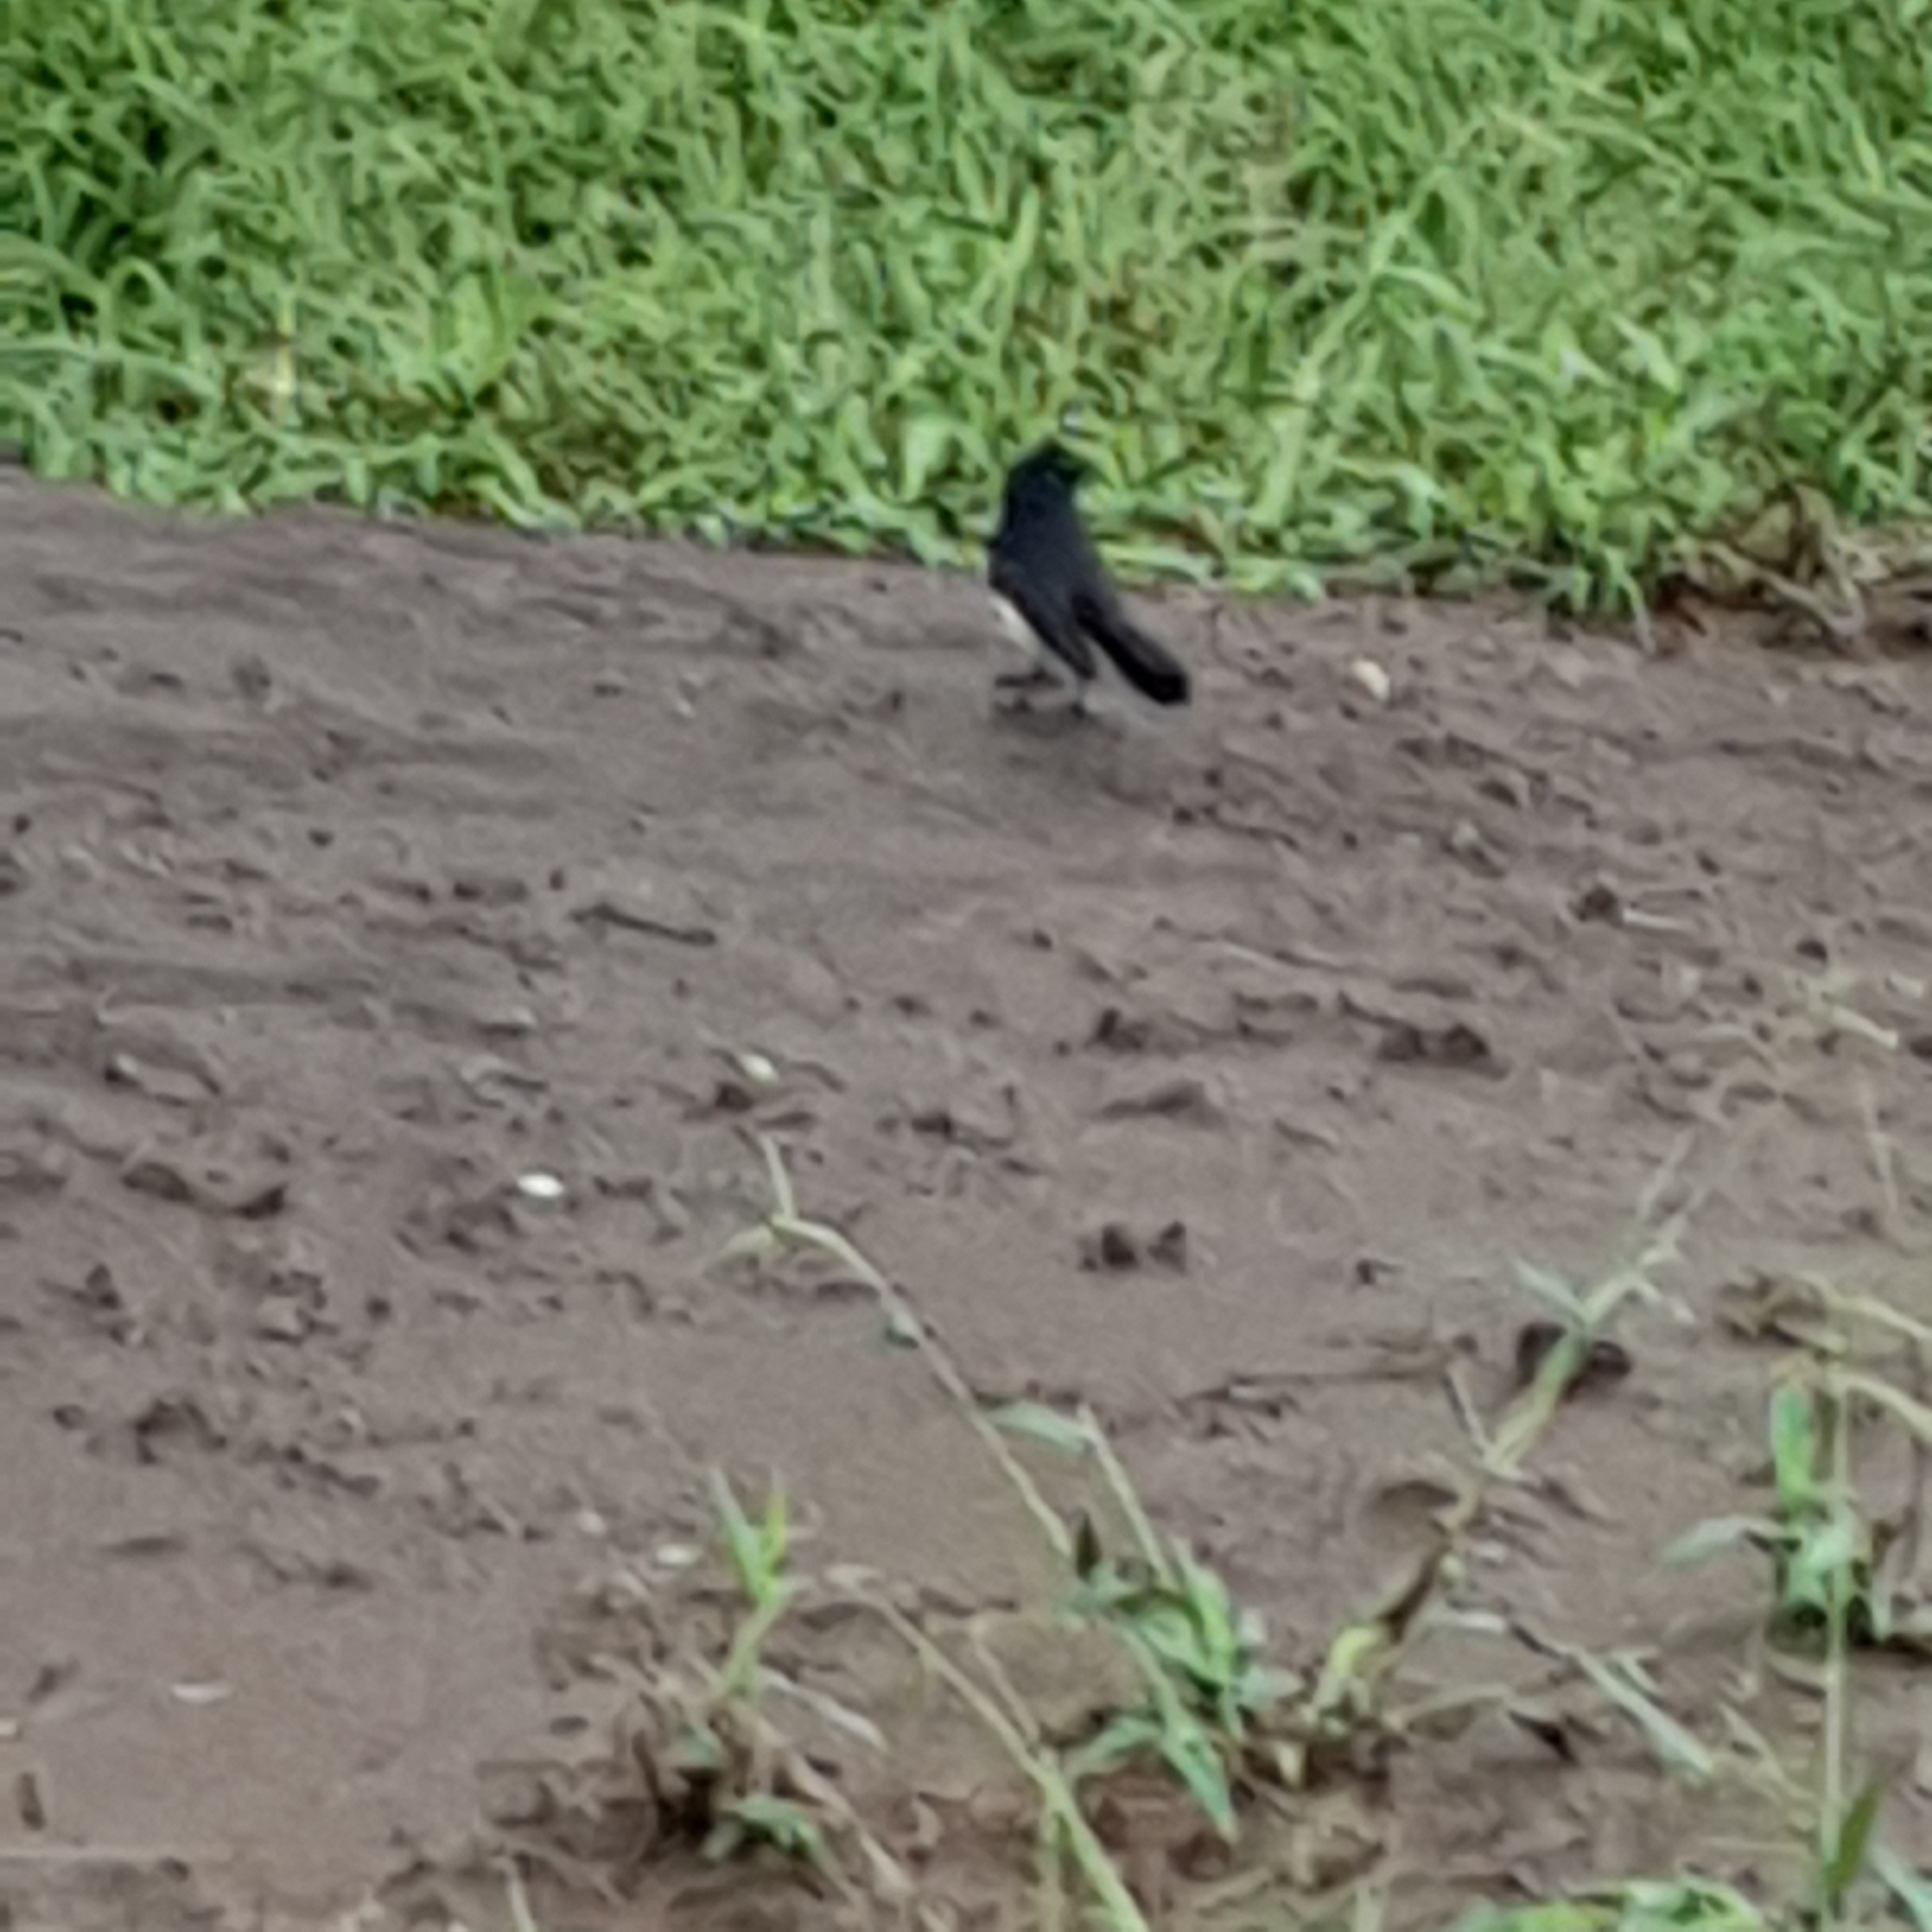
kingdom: Animalia
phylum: Chordata
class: Aves
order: Passeriformes
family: Rhipiduridae
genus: Rhipidura
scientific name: Rhipidura leucophrys
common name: Willie wagtail
